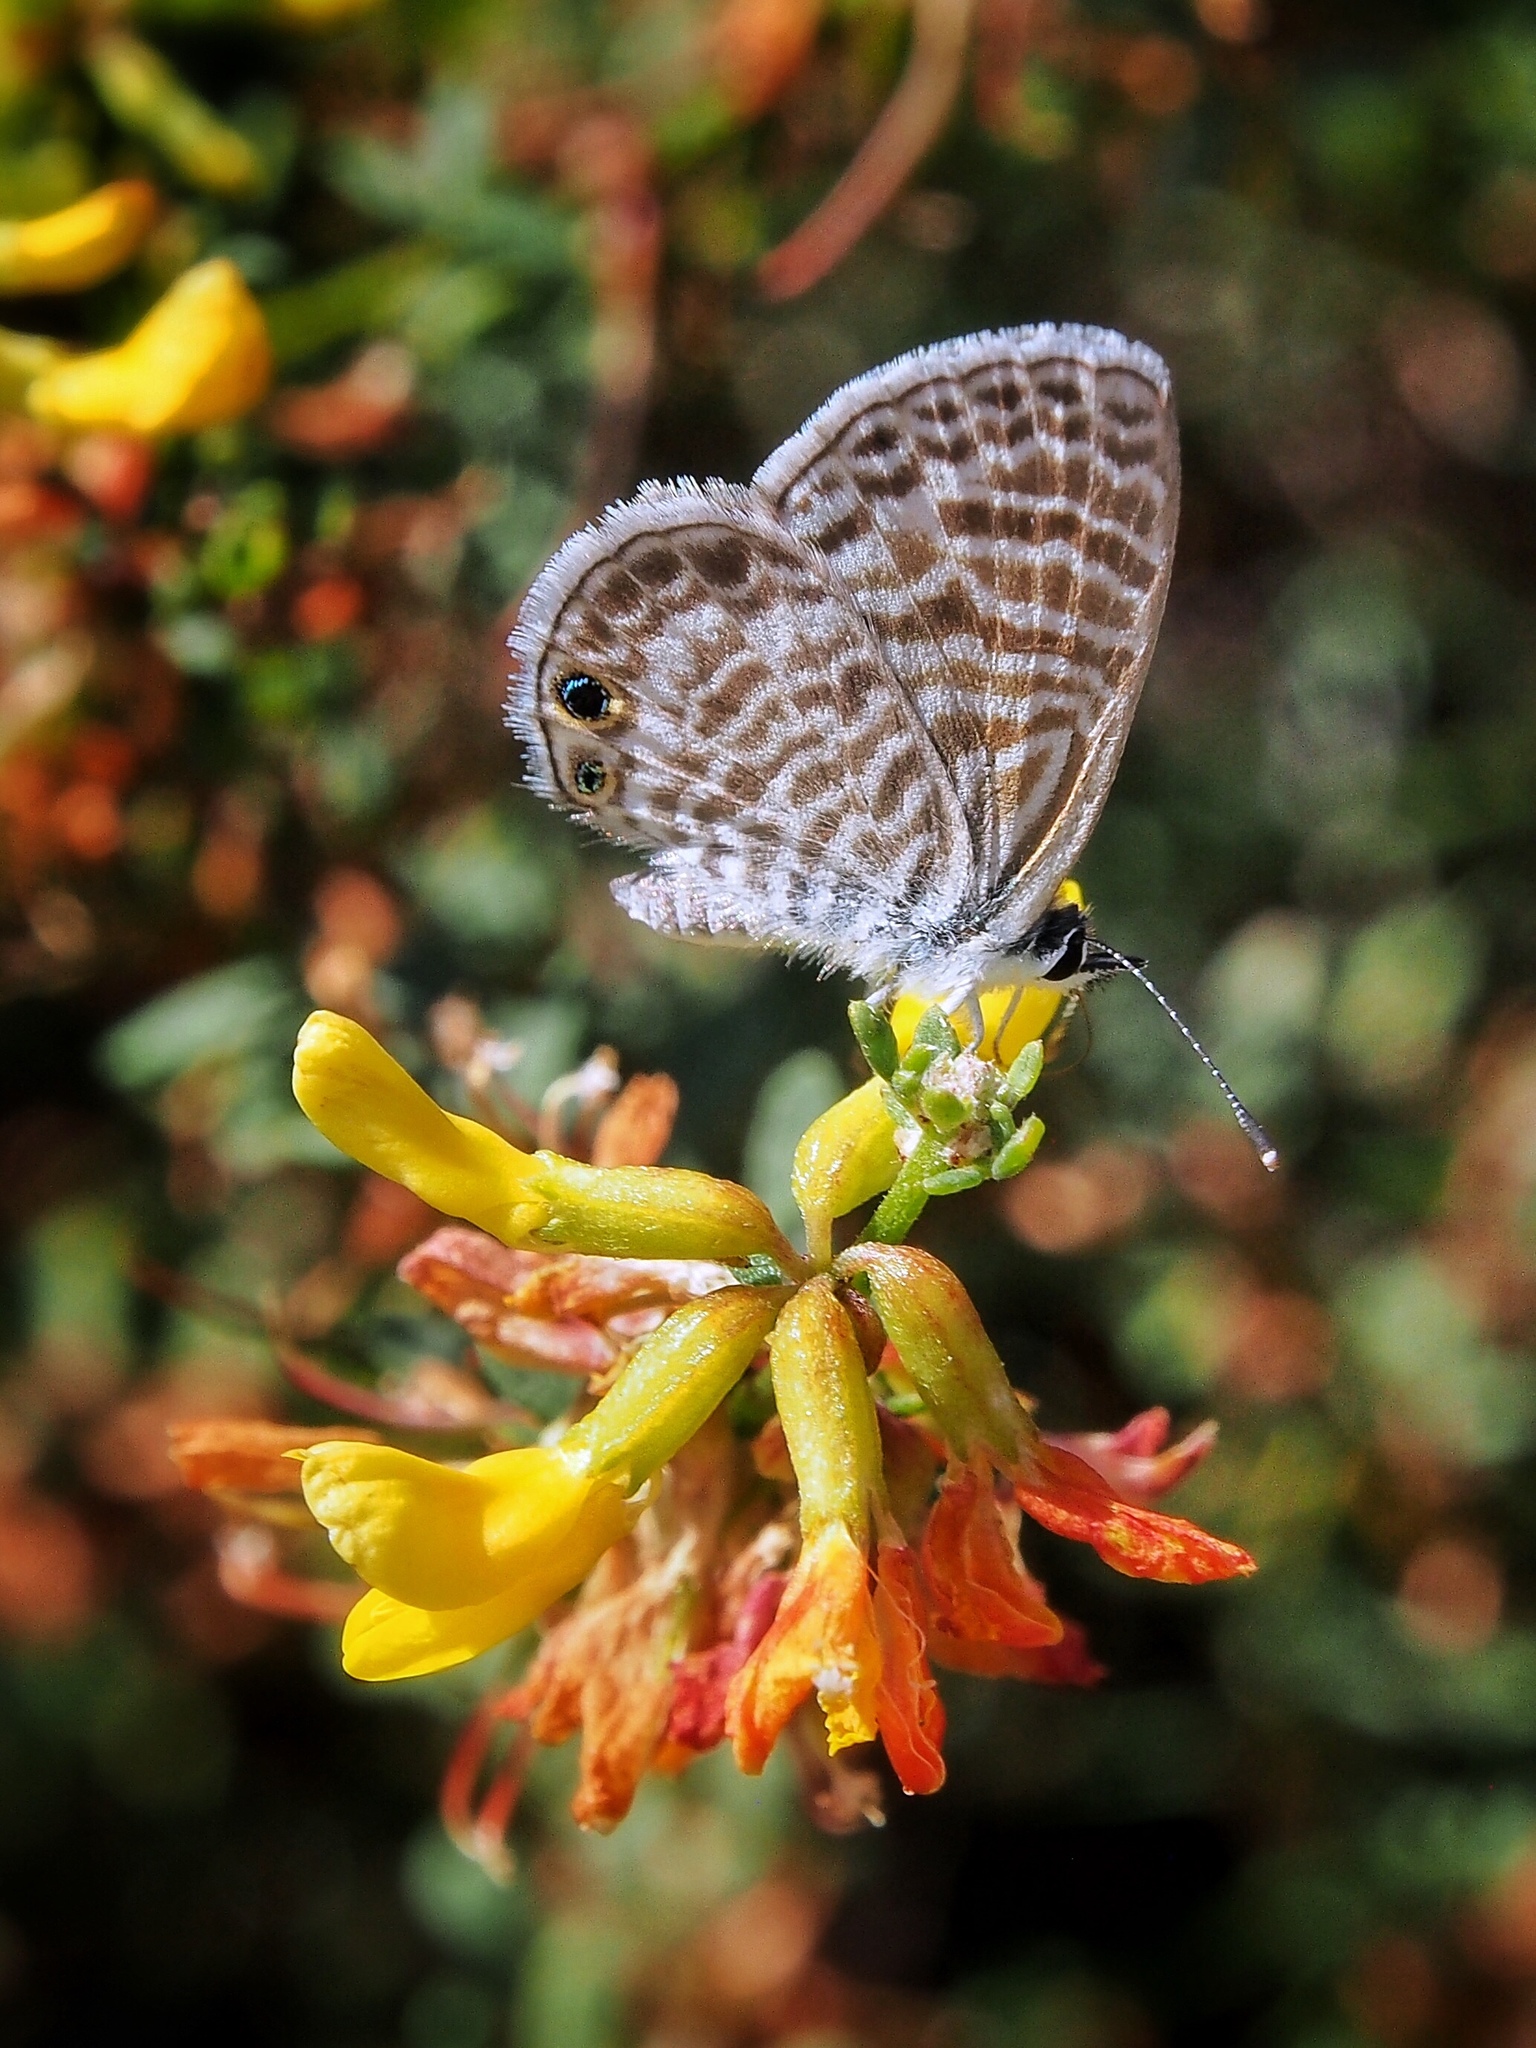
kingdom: Animalia
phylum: Arthropoda
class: Insecta
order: Lepidoptera
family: Lycaenidae
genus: Leptotes
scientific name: Leptotes marina
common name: Marine blue
